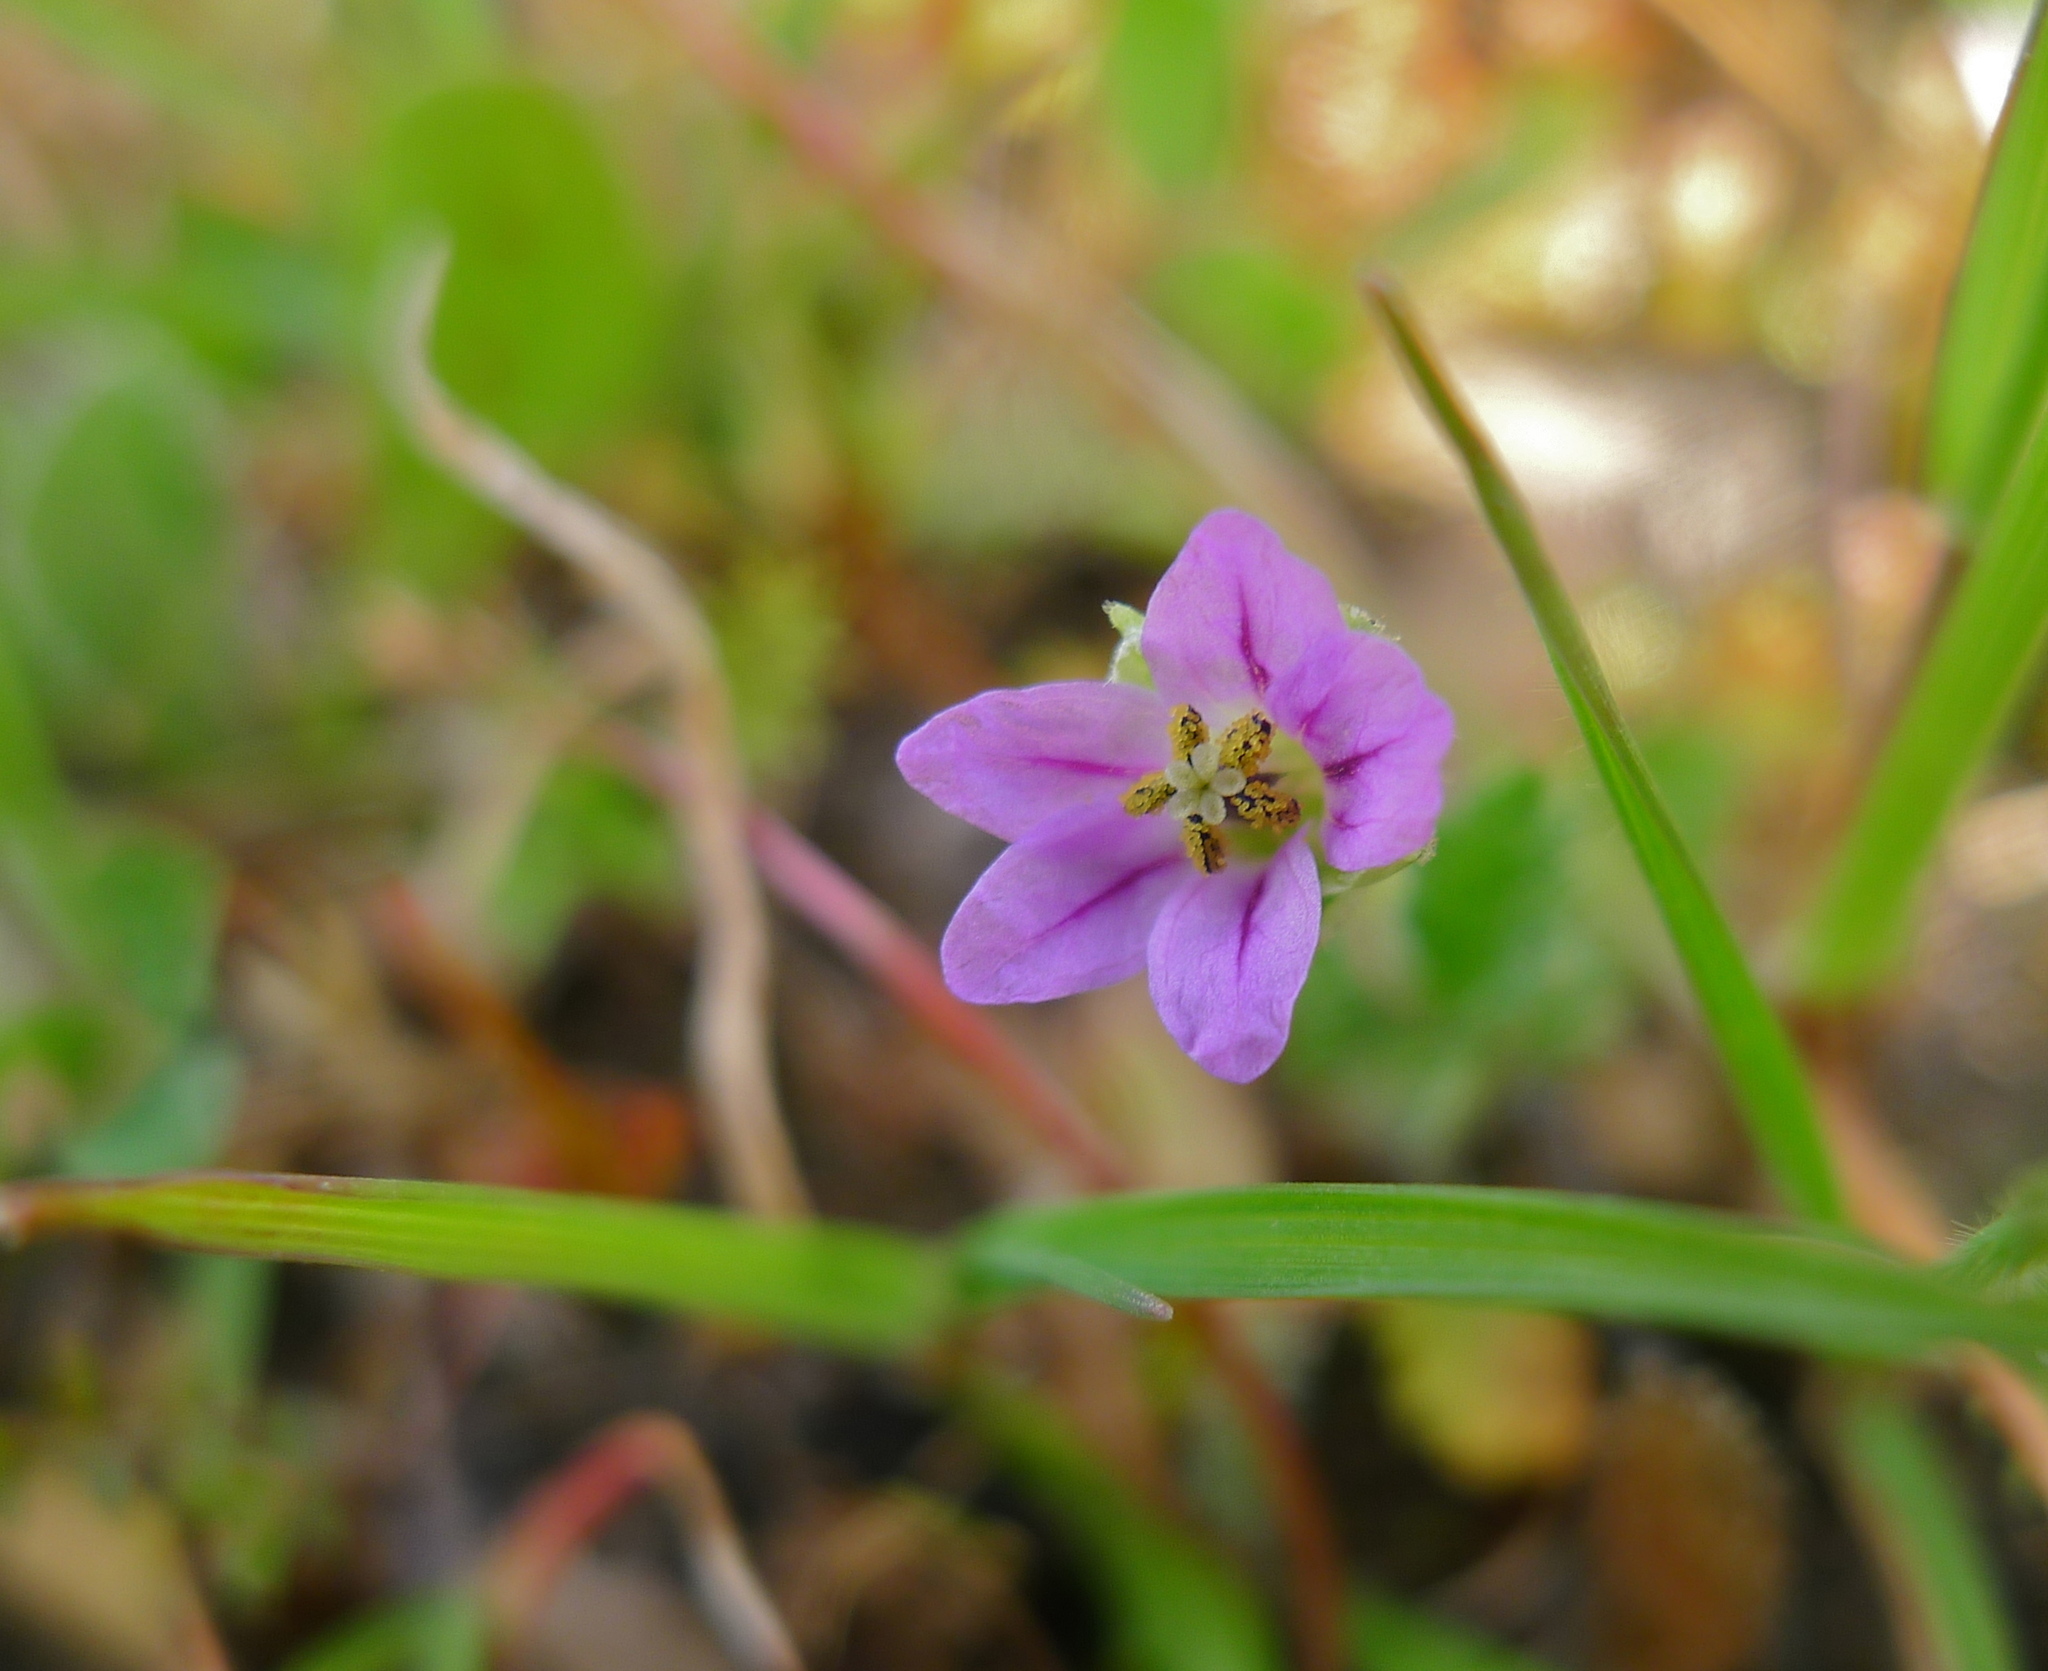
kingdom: Plantae
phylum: Tracheophyta
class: Magnoliopsida
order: Geraniales
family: Geraniaceae
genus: Erodium
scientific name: Erodium brachycarpum
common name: Hairy-pitted stork's-bill
